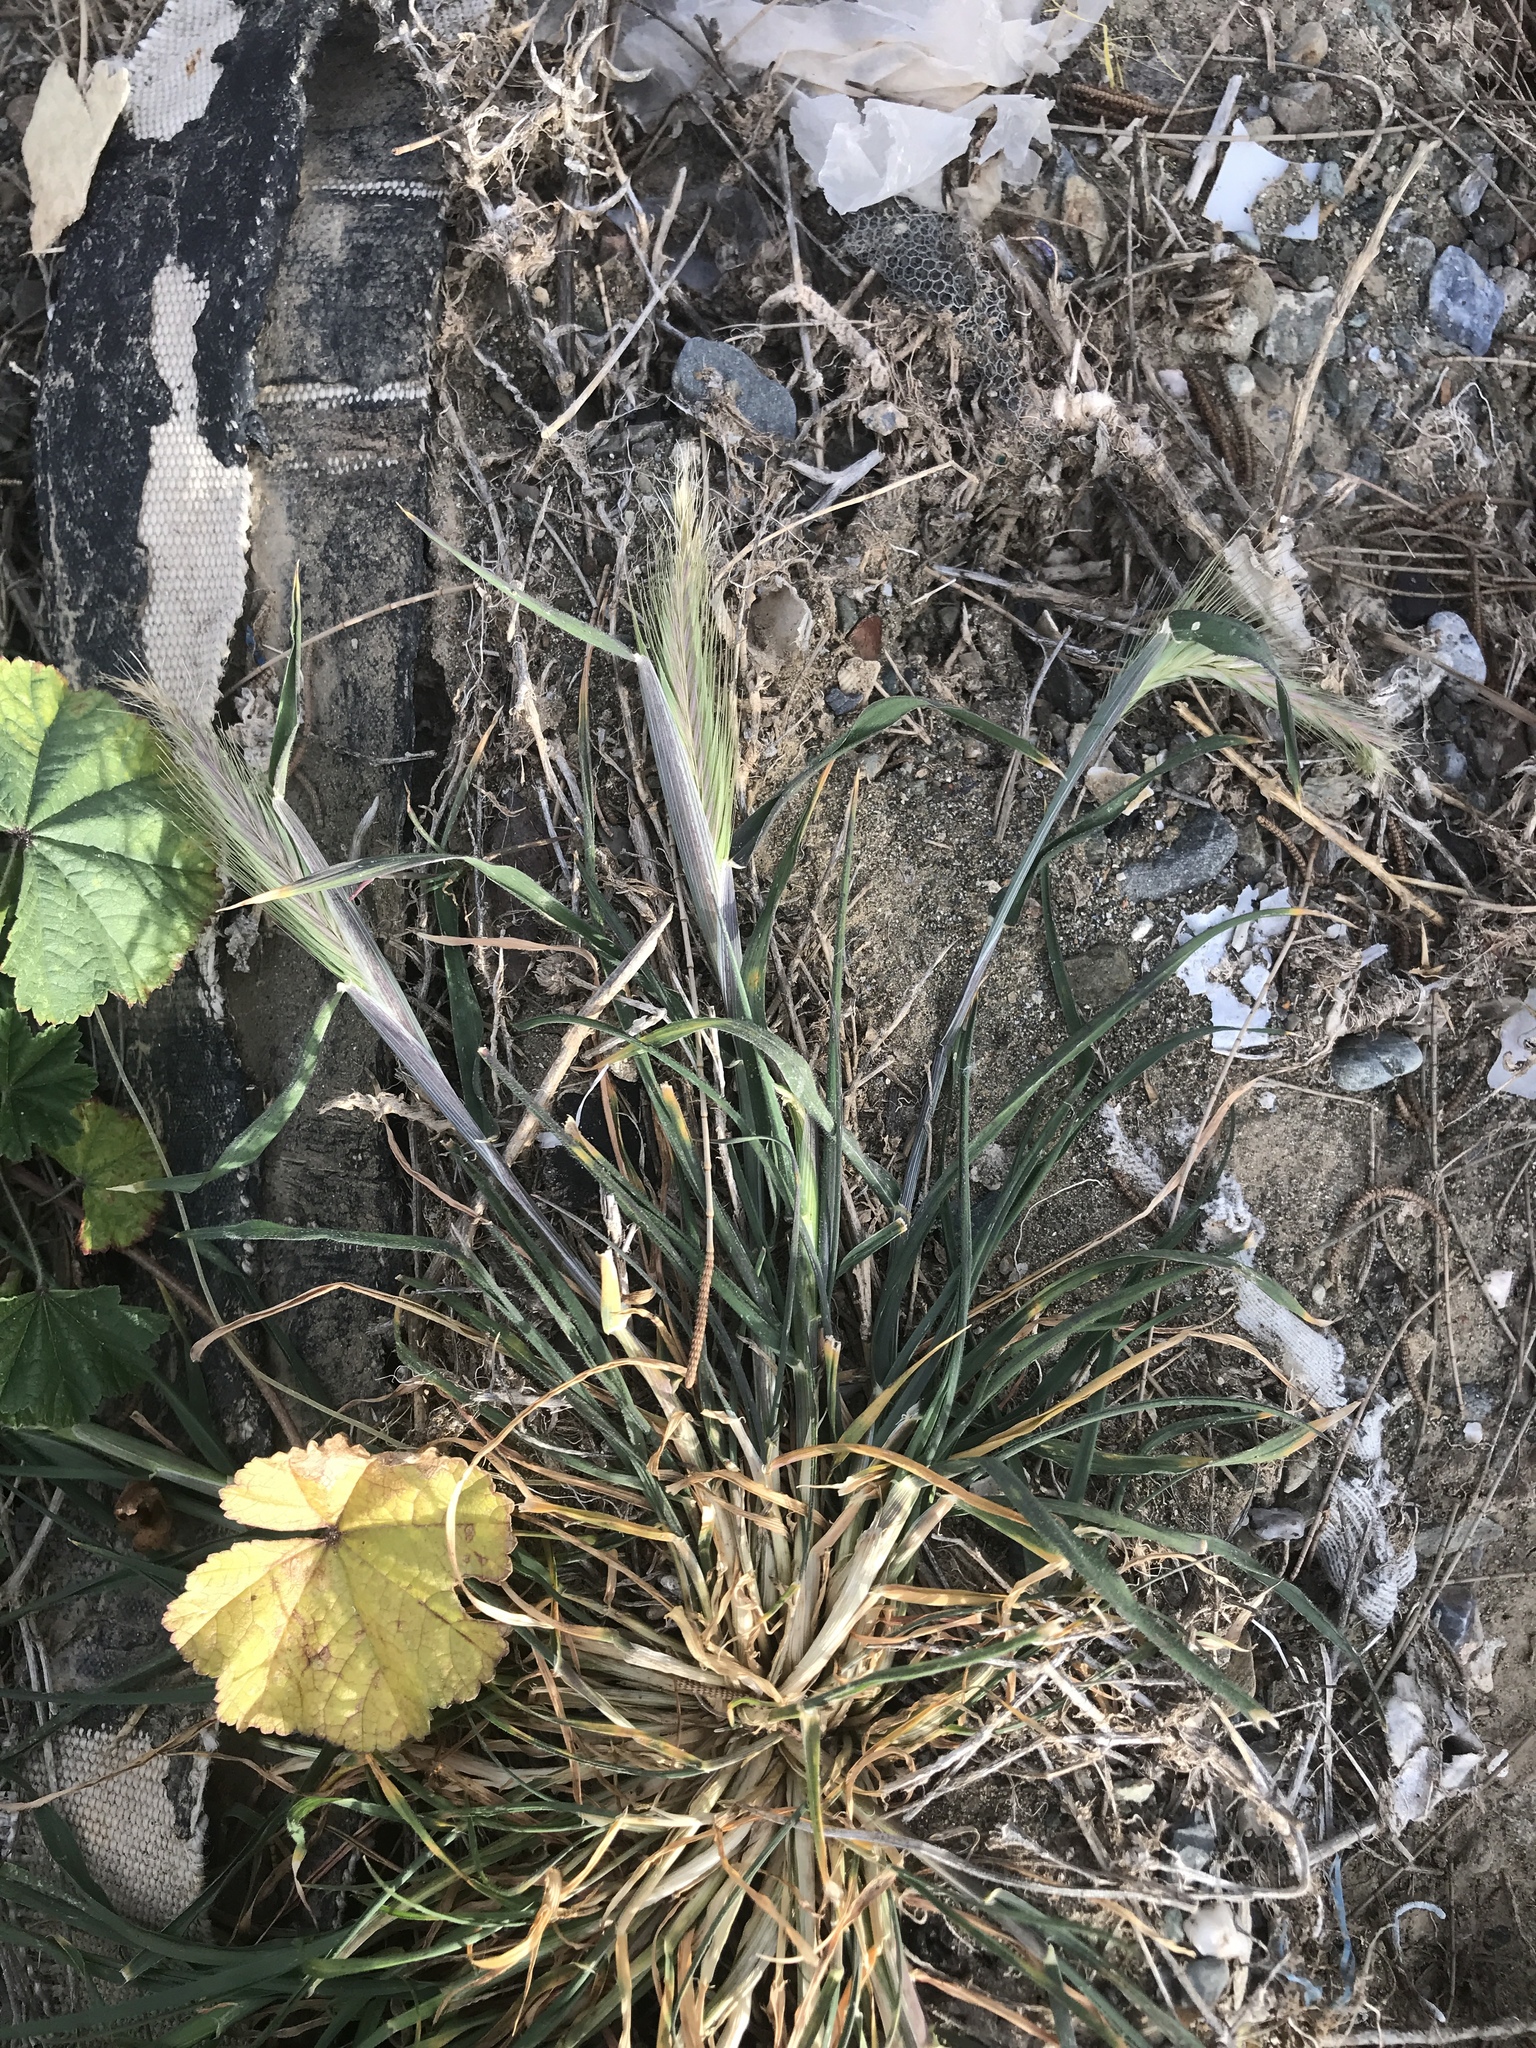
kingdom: Plantae
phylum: Tracheophyta
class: Liliopsida
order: Poales
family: Poaceae
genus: Hordeum
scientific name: Hordeum murinum
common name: Wall barley
